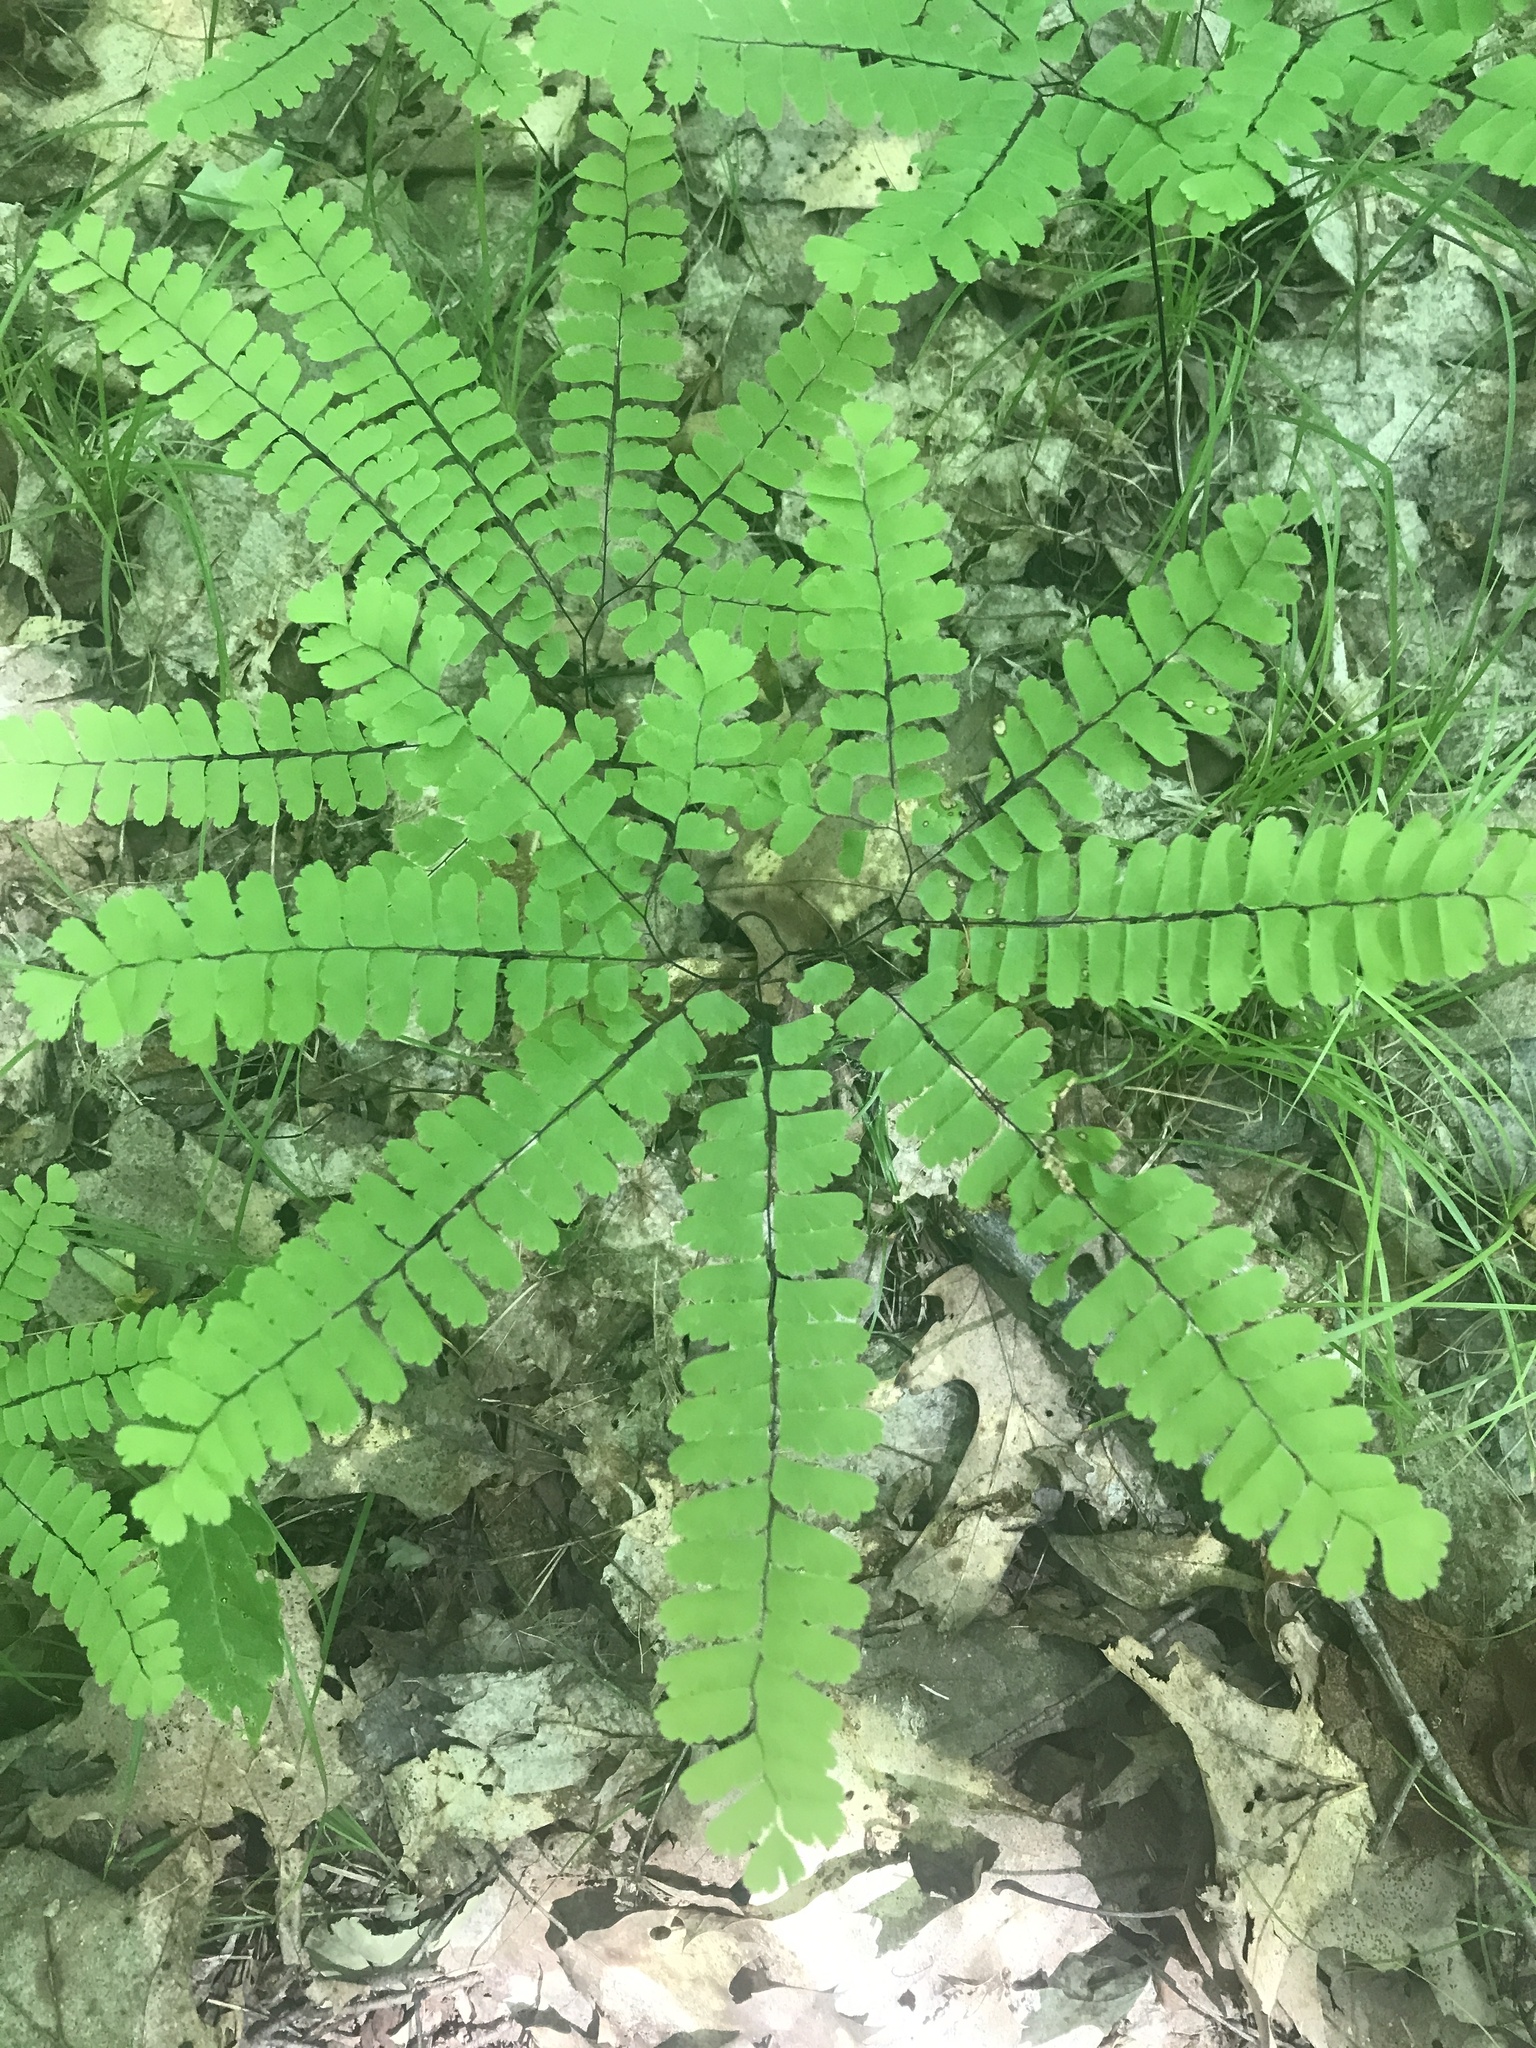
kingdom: Plantae
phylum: Tracheophyta
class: Polypodiopsida
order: Polypodiales
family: Pteridaceae
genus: Adiantum
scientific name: Adiantum pedatum
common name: Five-finger fern
